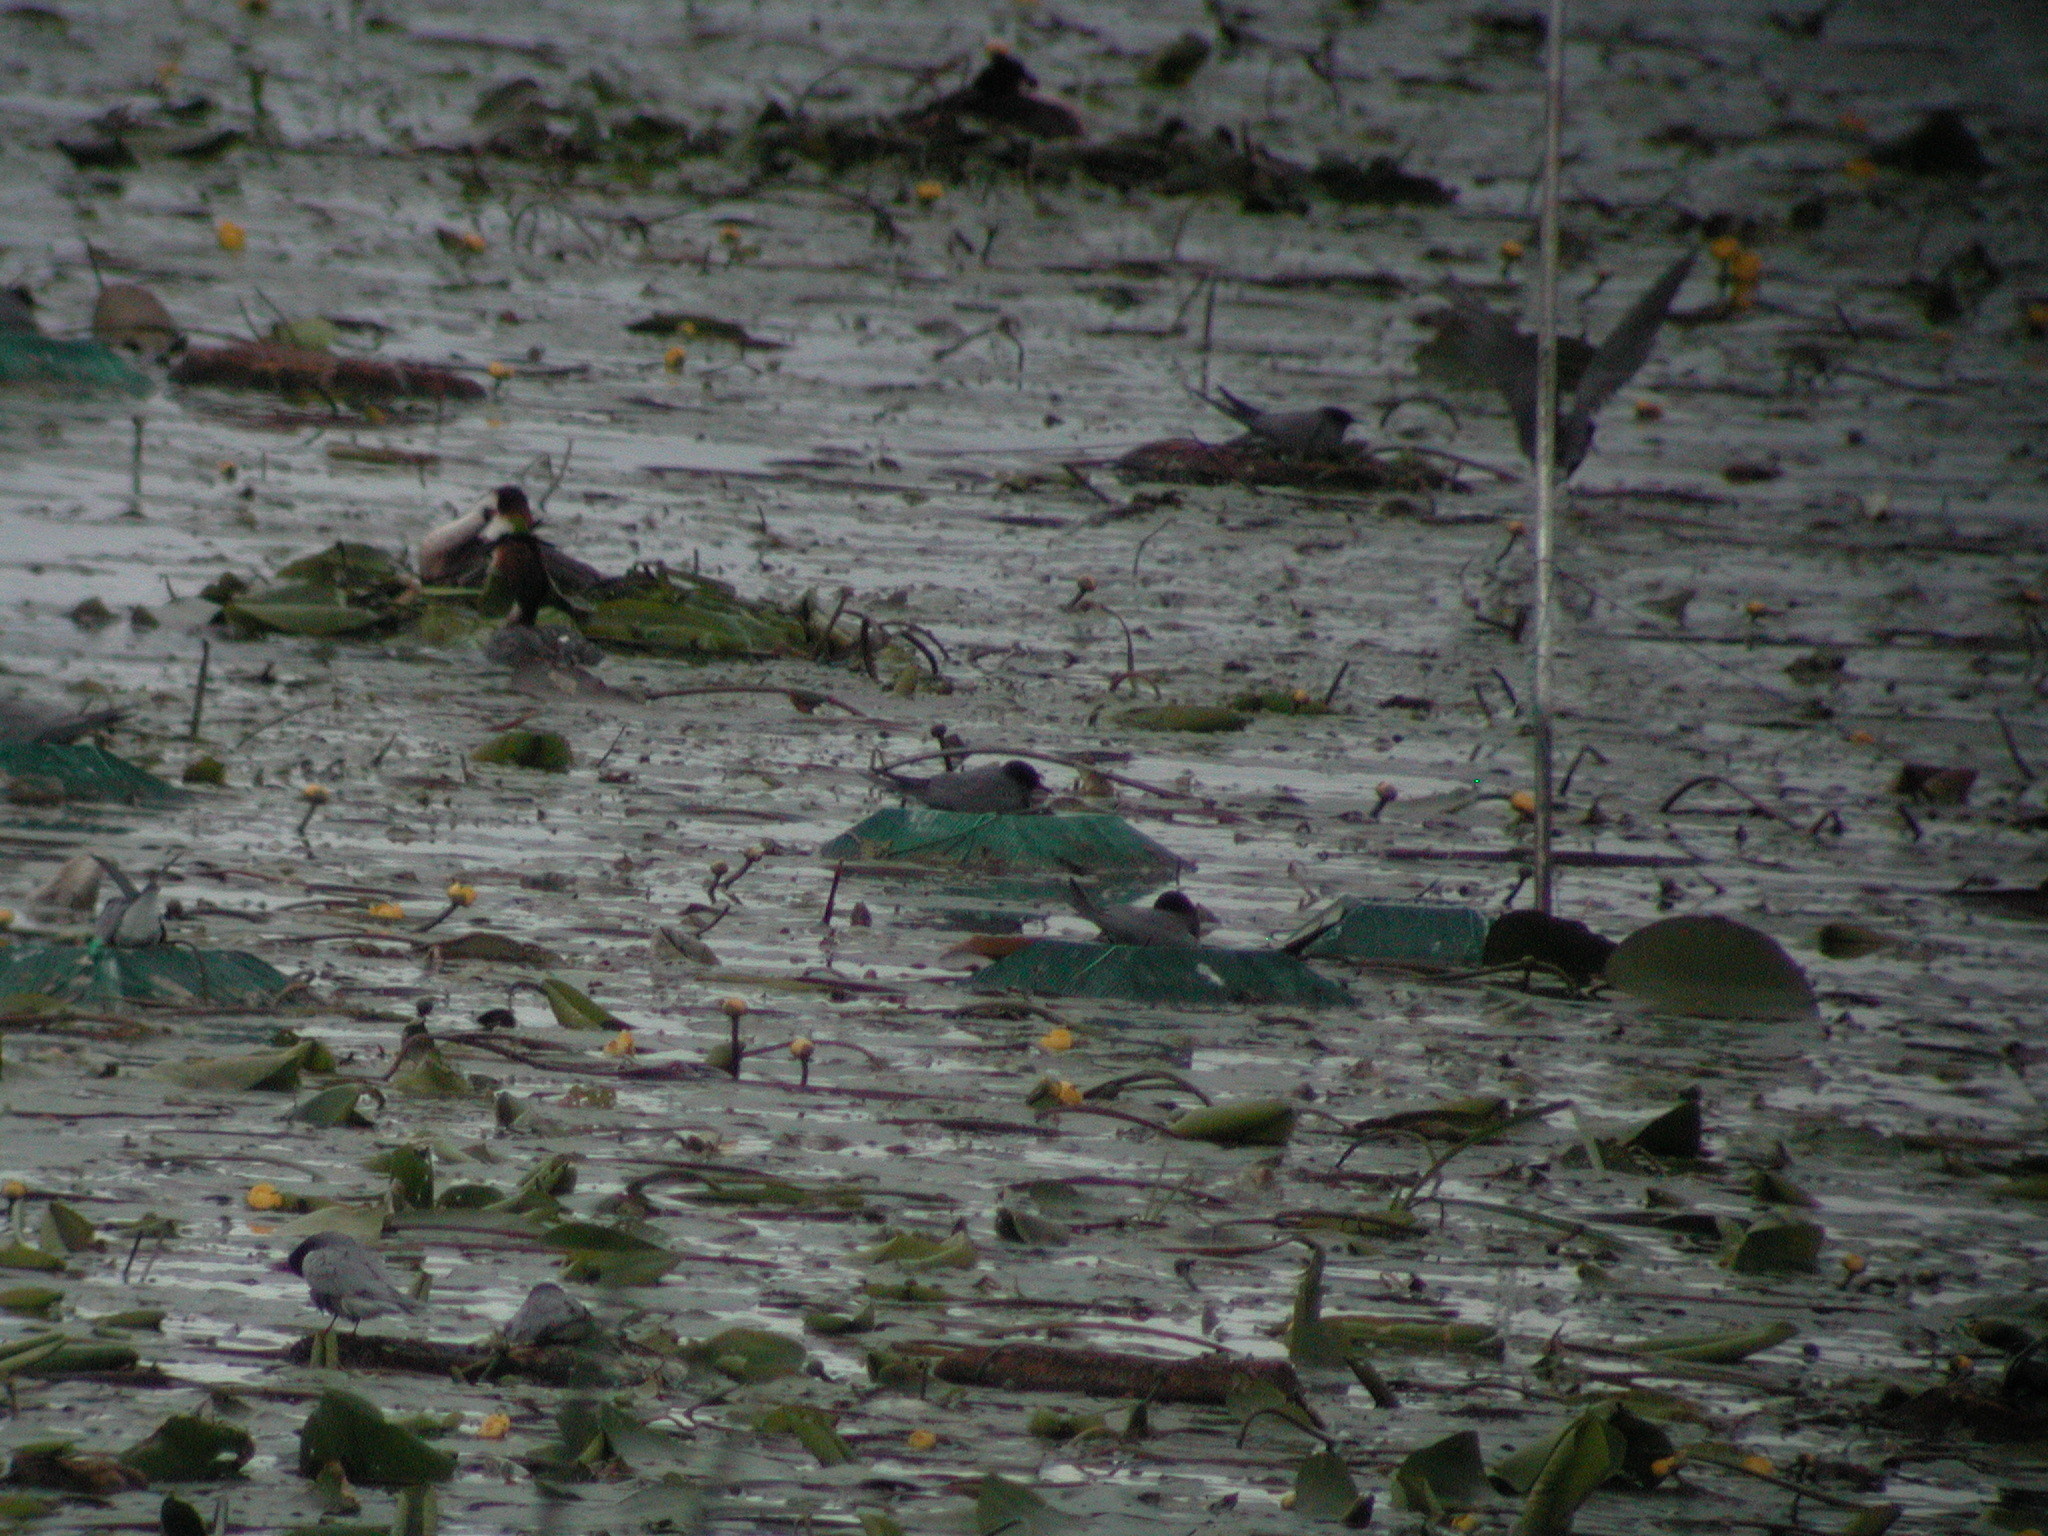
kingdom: Animalia
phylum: Chordata
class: Aves
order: Charadriiformes
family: Laridae
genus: Chlidonias
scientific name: Chlidonias niger
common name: Black tern
